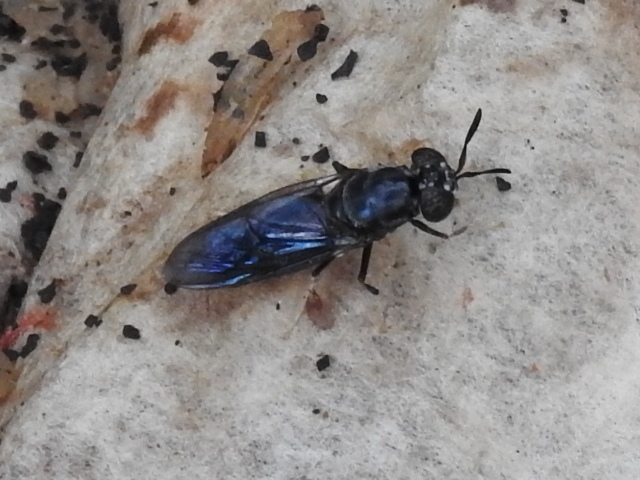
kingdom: Animalia
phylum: Arthropoda
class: Insecta
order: Diptera
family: Stratiomyidae
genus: Hermetia
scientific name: Hermetia illucens
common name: Black soldier fly
